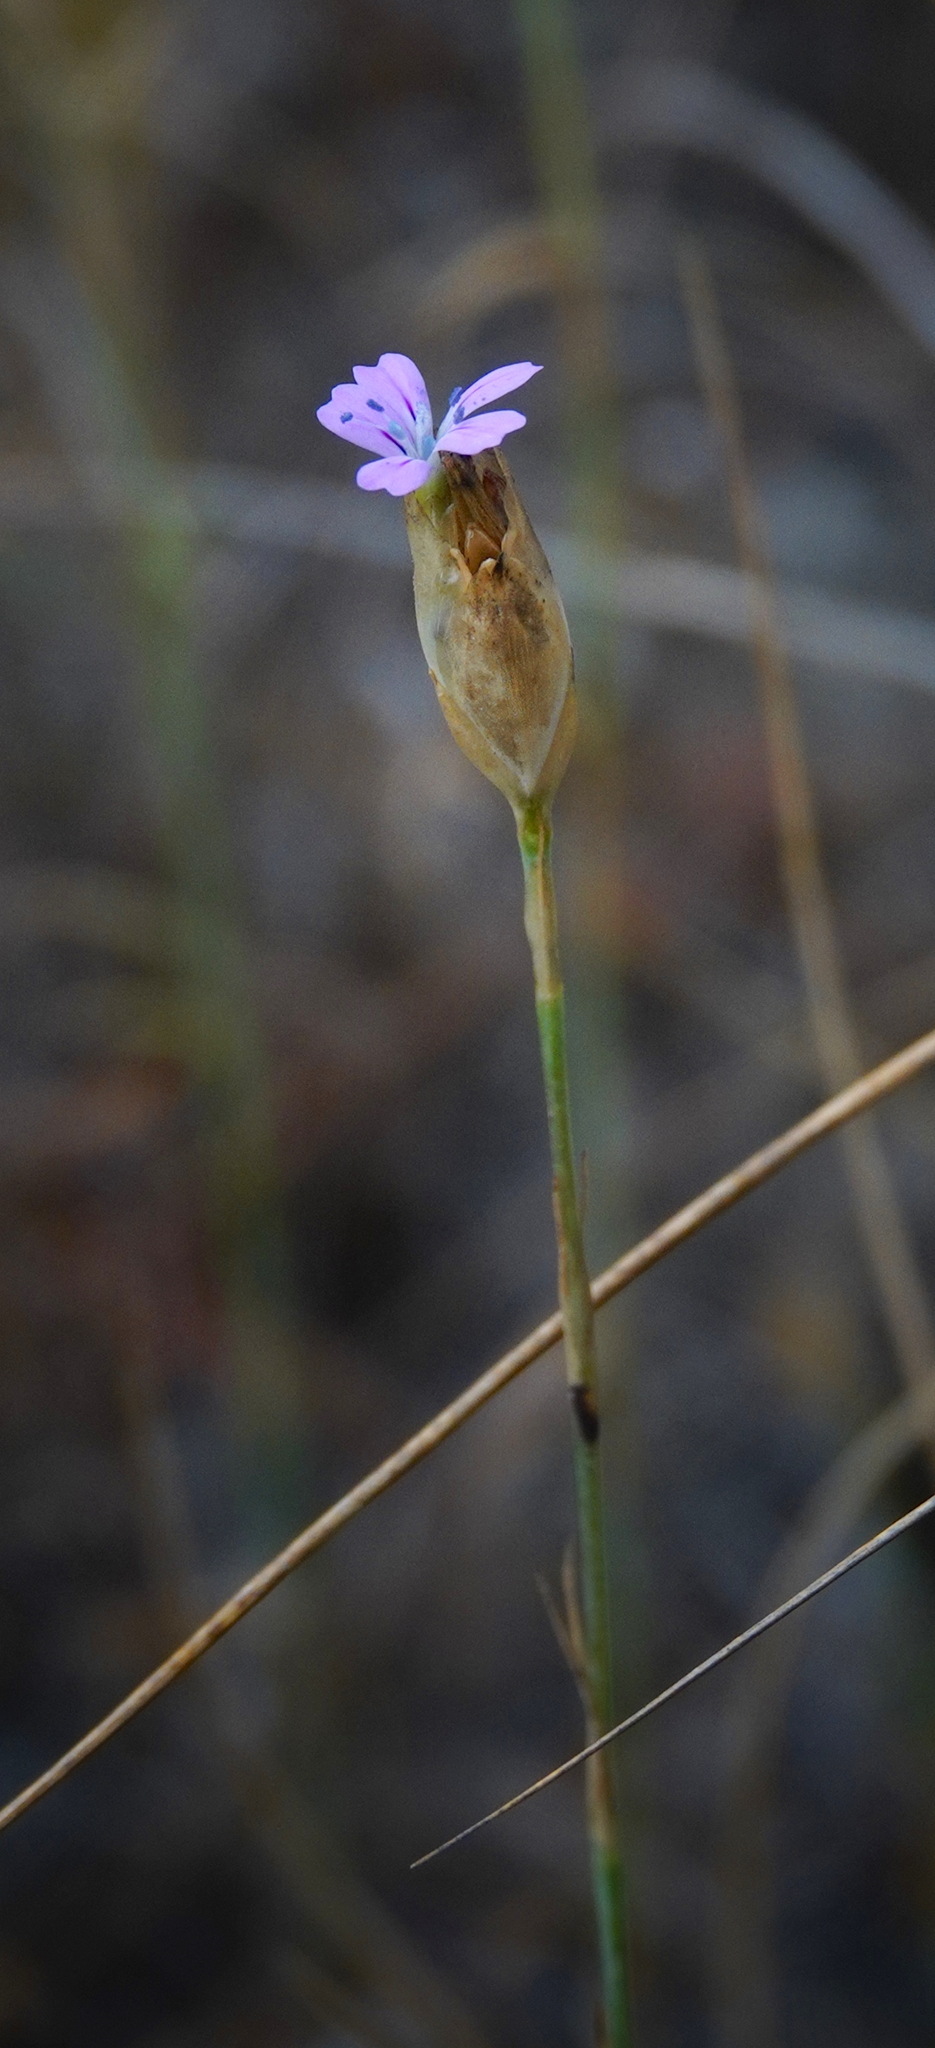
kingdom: Plantae
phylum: Tracheophyta
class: Magnoliopsida
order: Caryophyllales
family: Caryophyllaceae
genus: Petrorhagia
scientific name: Petrorhagia nanteuilii
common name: Proliferous pink
